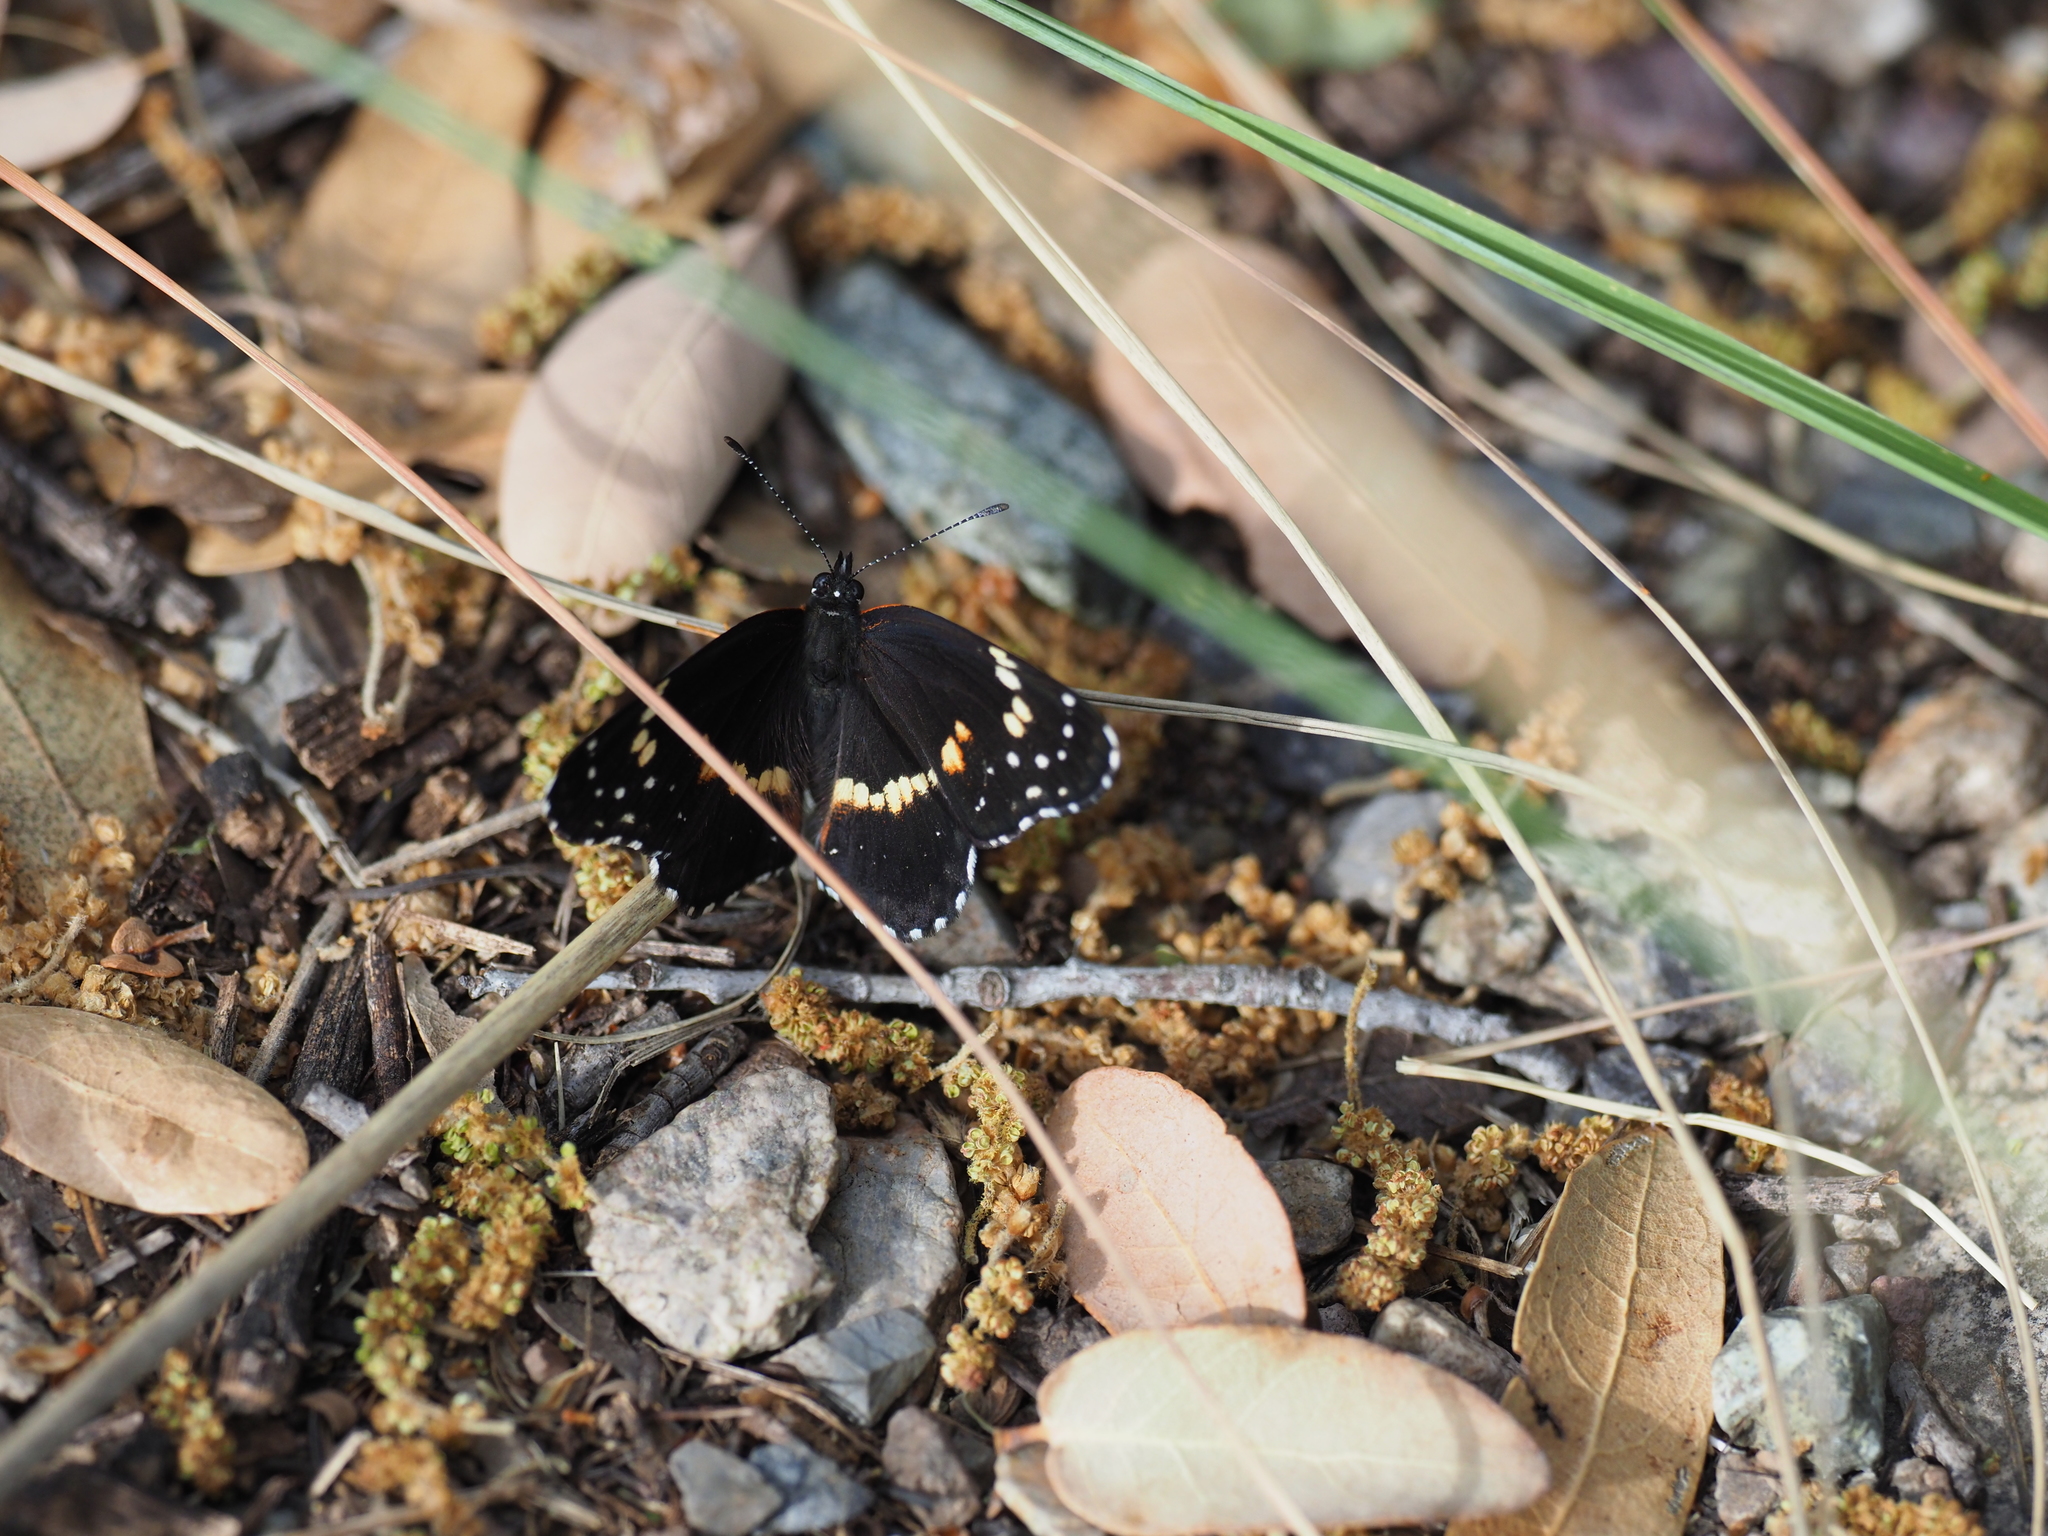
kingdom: Animalia
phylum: Arthropoda
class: Insecta
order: Lepidoptera
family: Nymphalidae
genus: Chlosyne
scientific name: Chlosyne lacinia
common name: Bordered patch
